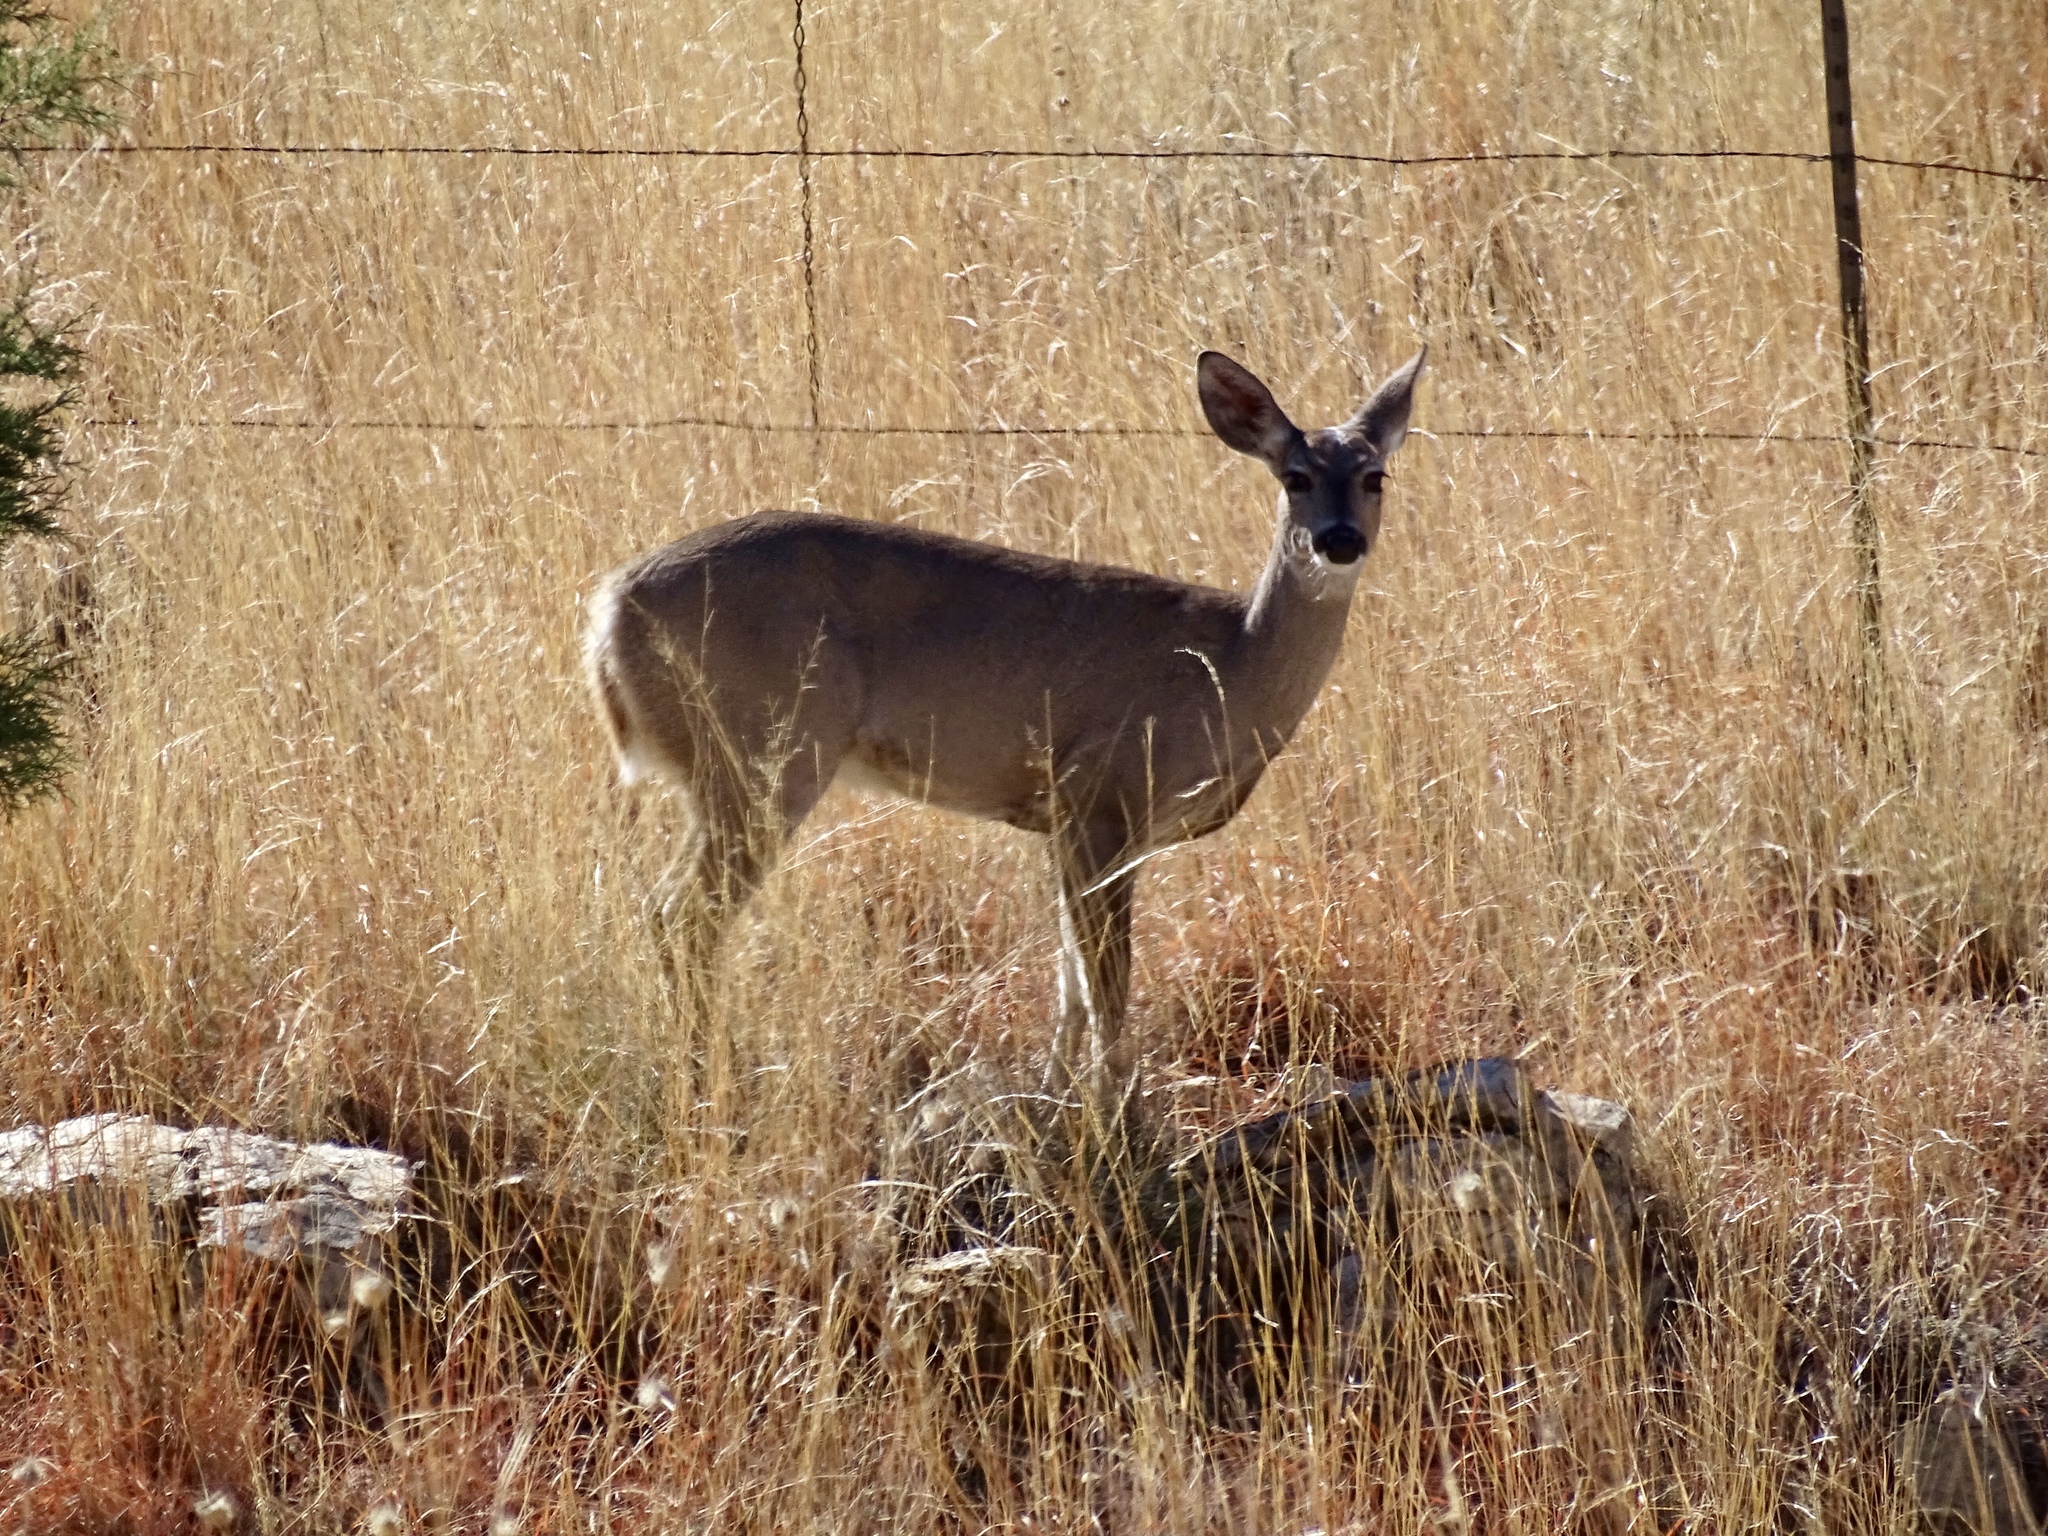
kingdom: Animalia
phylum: Chordata
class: Mammalia
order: Artiodactyla
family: Cervidae
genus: Odocoileus
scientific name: Odocoileus virginianus
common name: White-tailed deer
